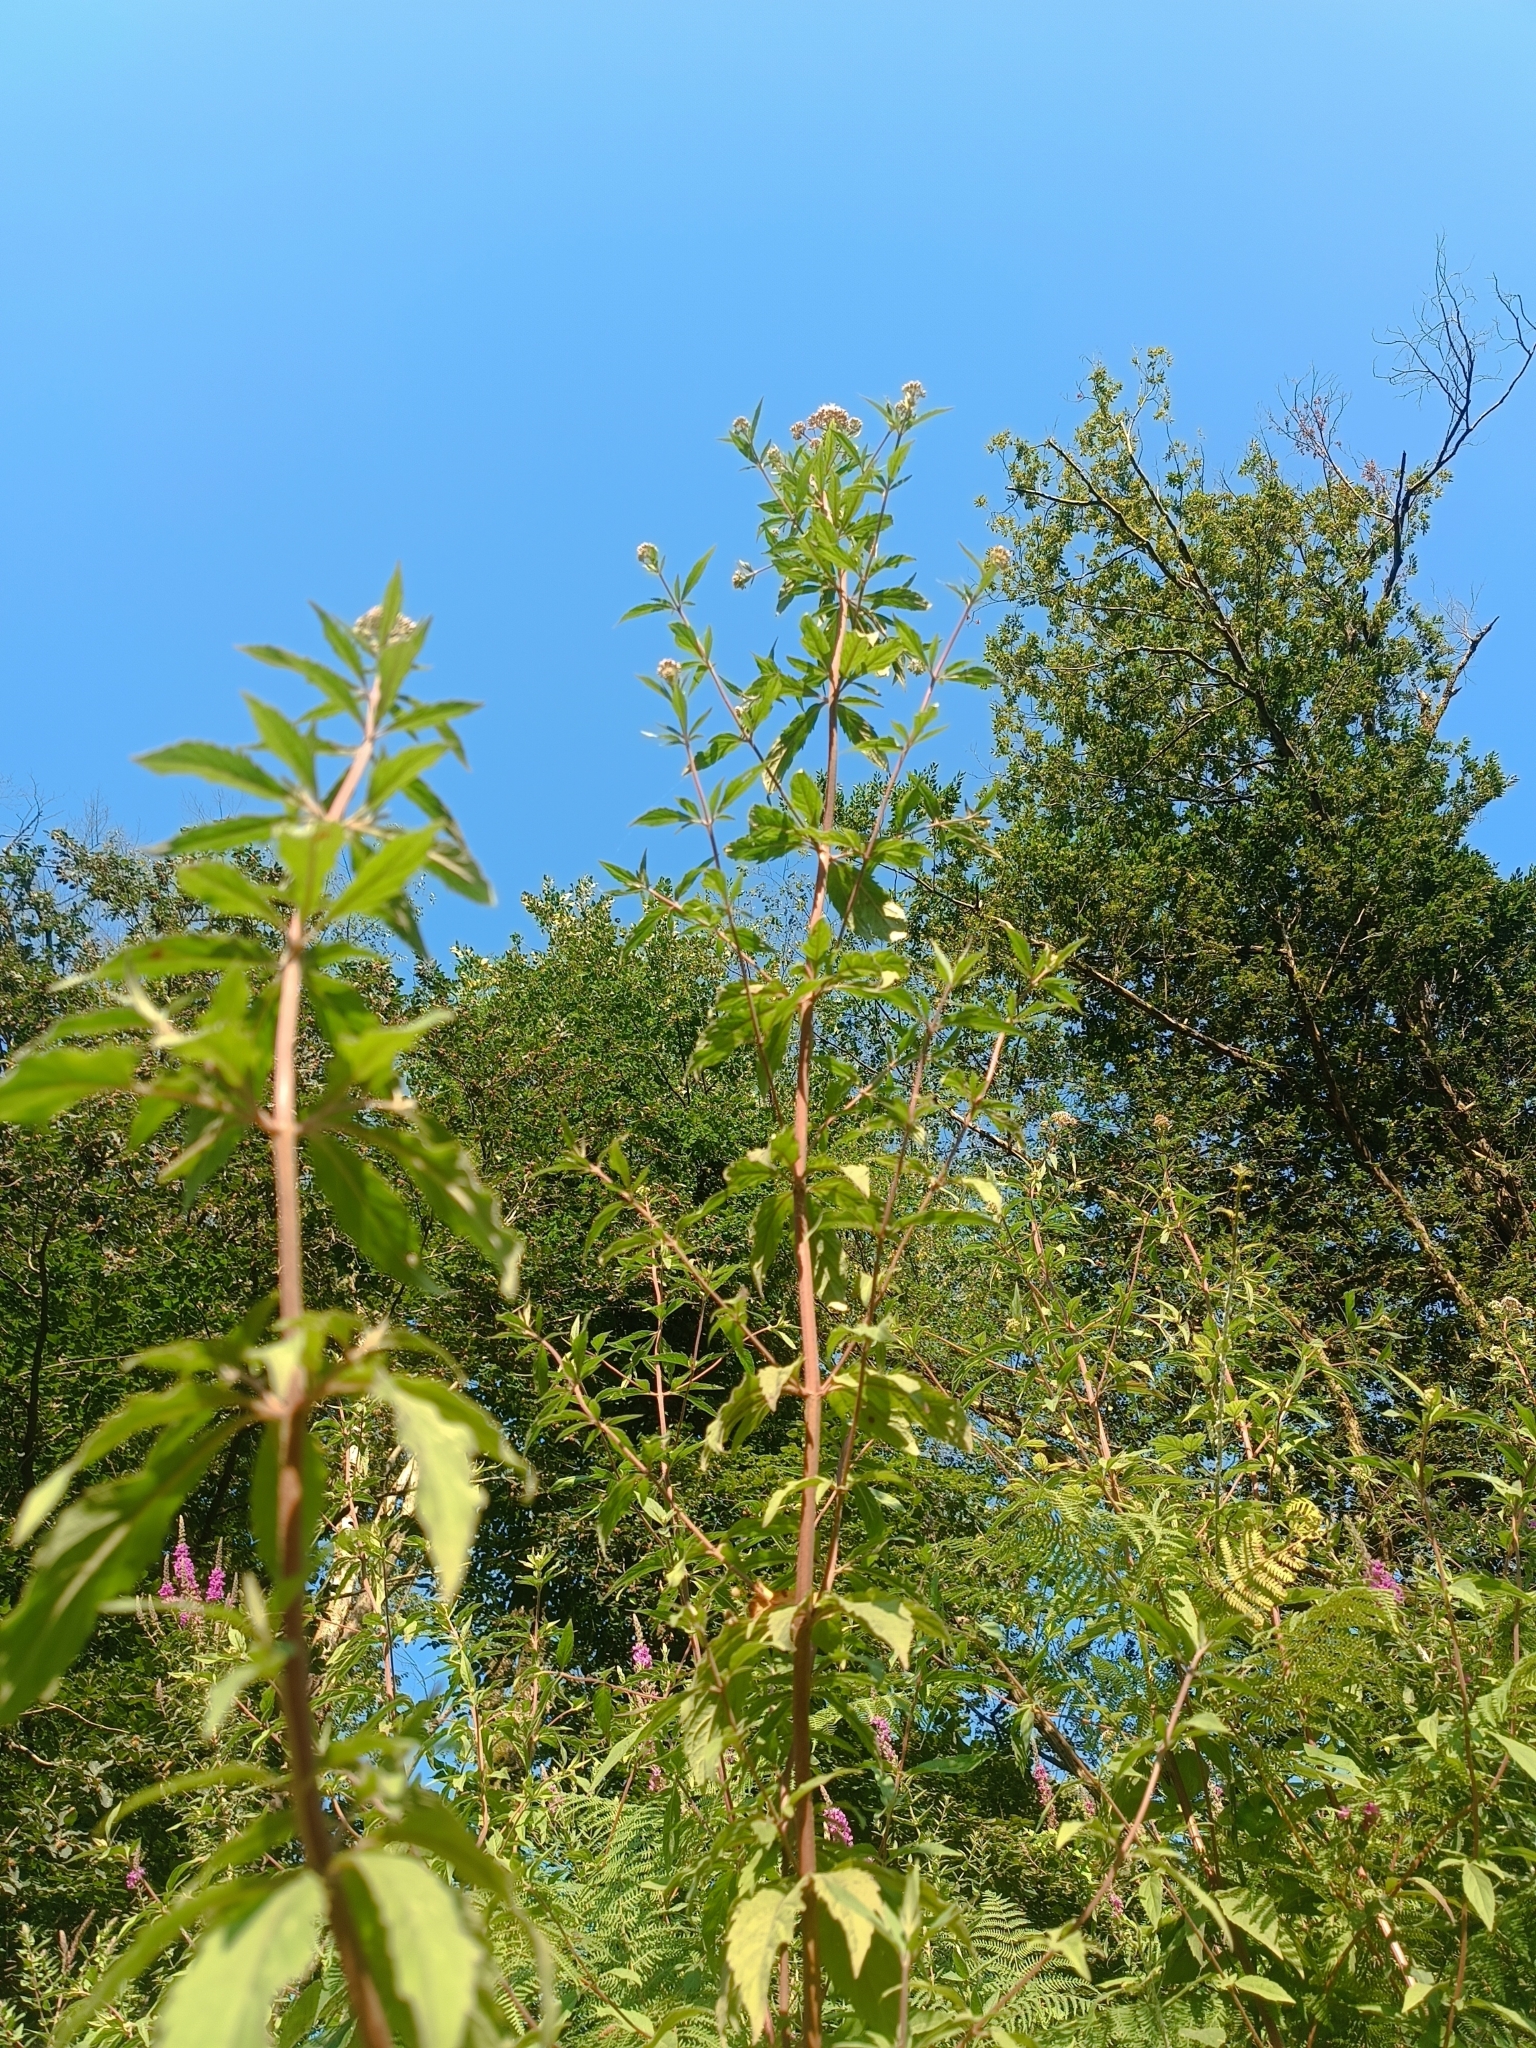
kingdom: Plantae
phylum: Tracheophyta
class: Magnoliopsida
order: Asterales
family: Asteraceae
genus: Eupatorium
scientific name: Eupatorium cannabinum
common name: Hemp-agrimony
